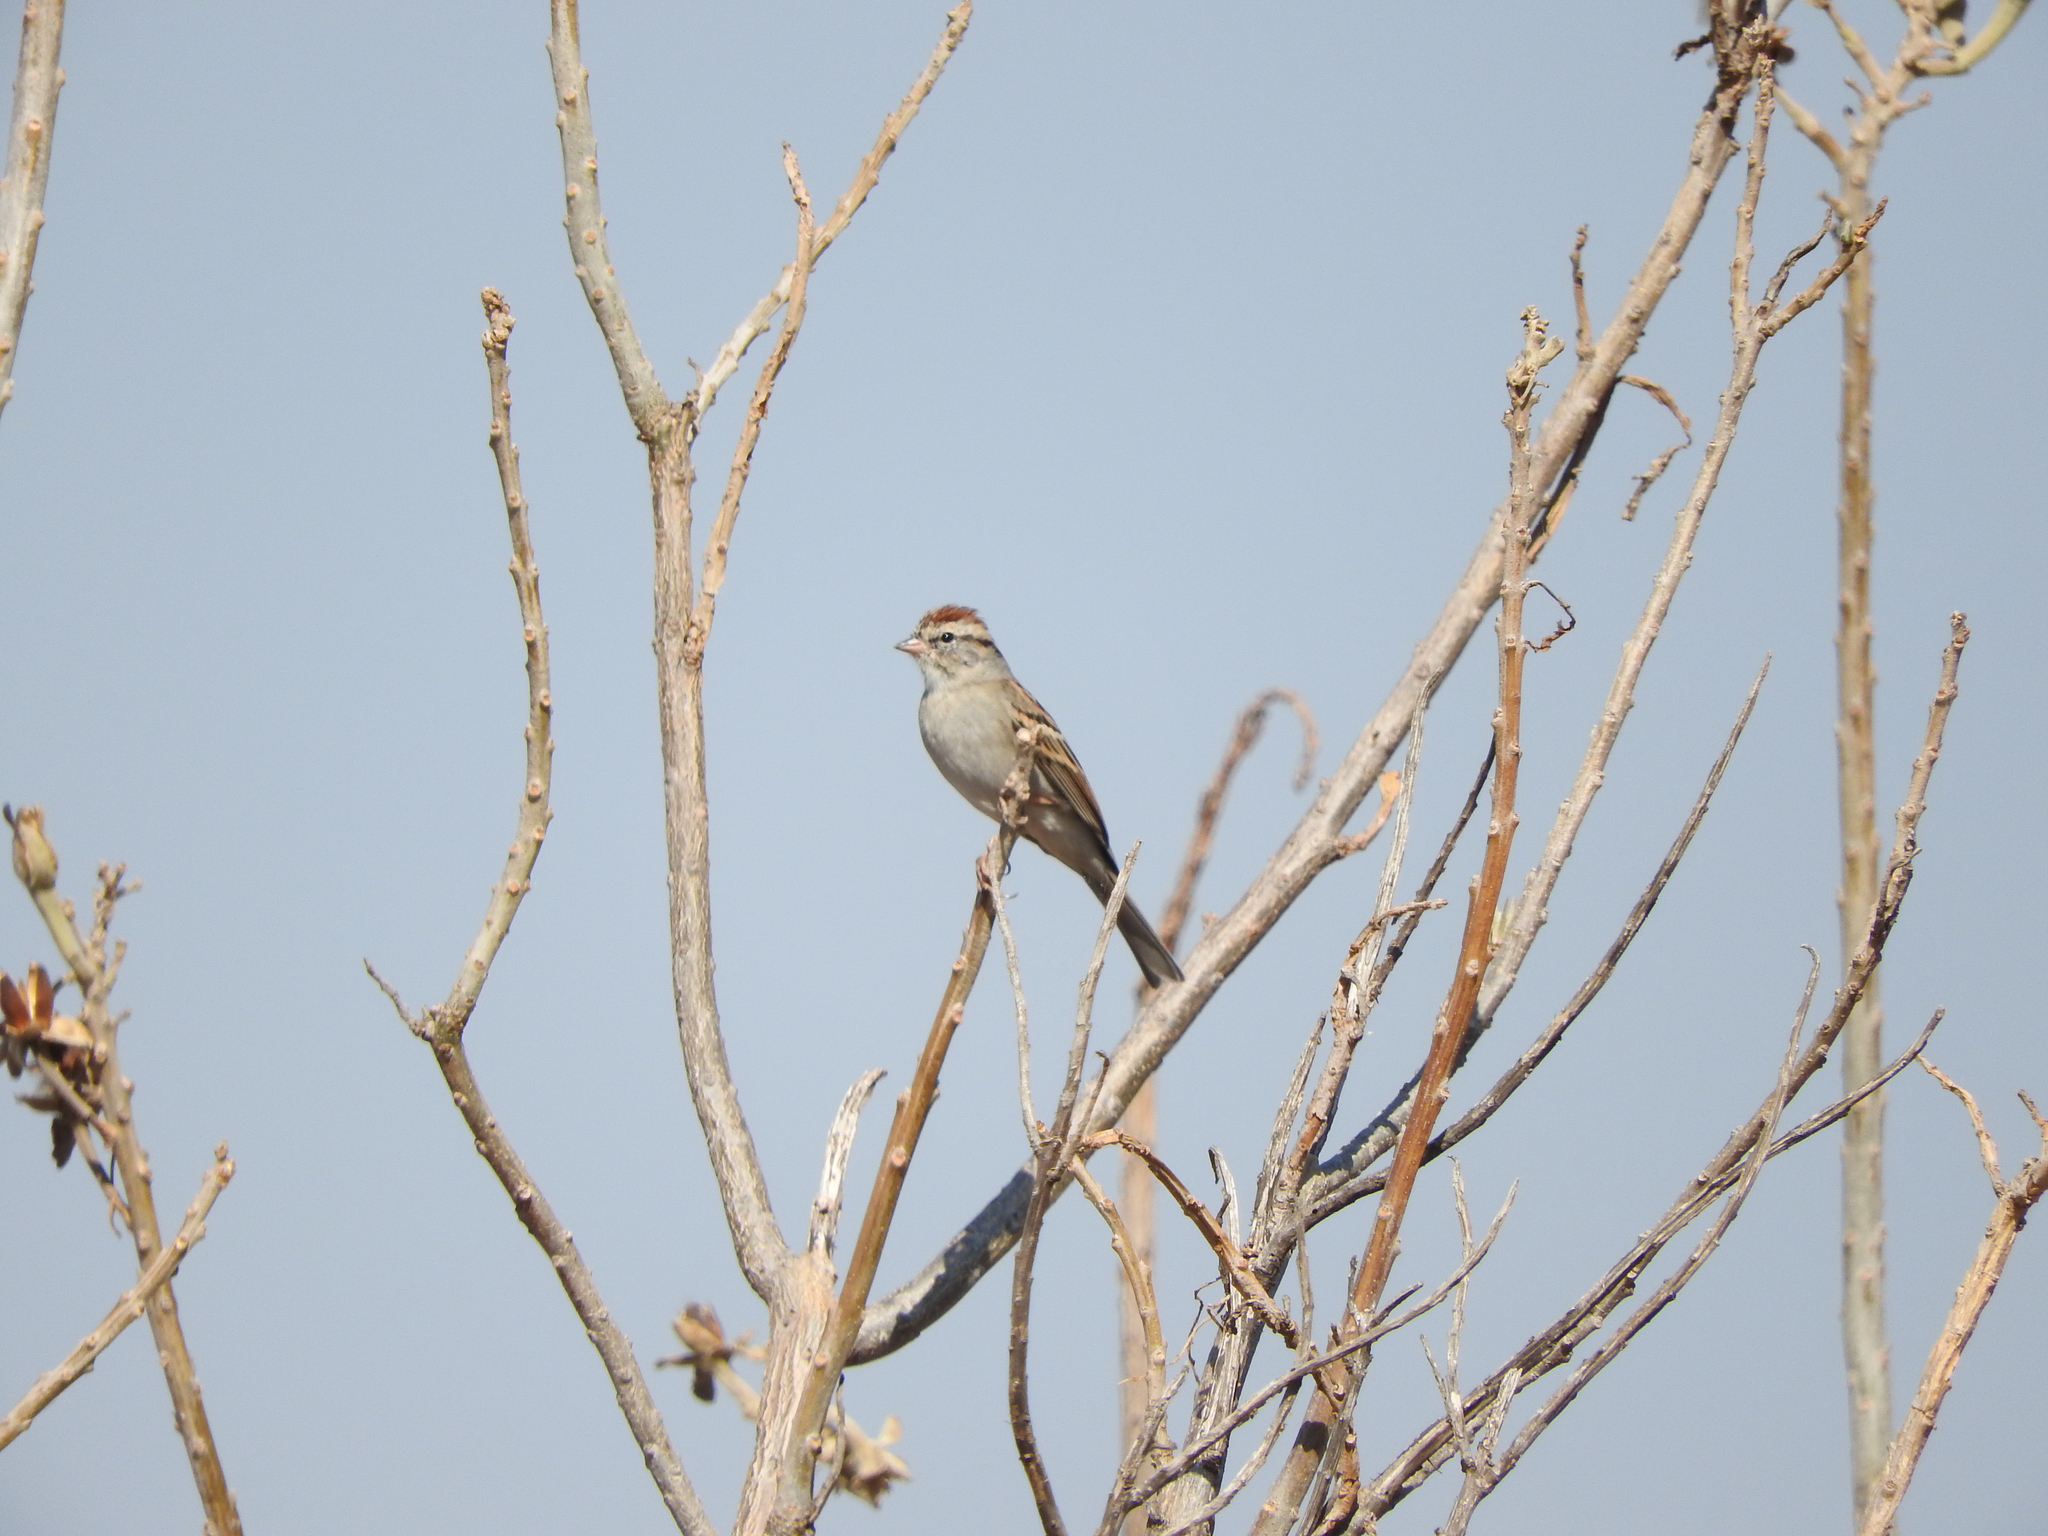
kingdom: Animalia
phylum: Chordata
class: Aves
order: Passeriformes
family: Passerellidae
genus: Spizella
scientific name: Spizella passerina
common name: Chipping sparrow
